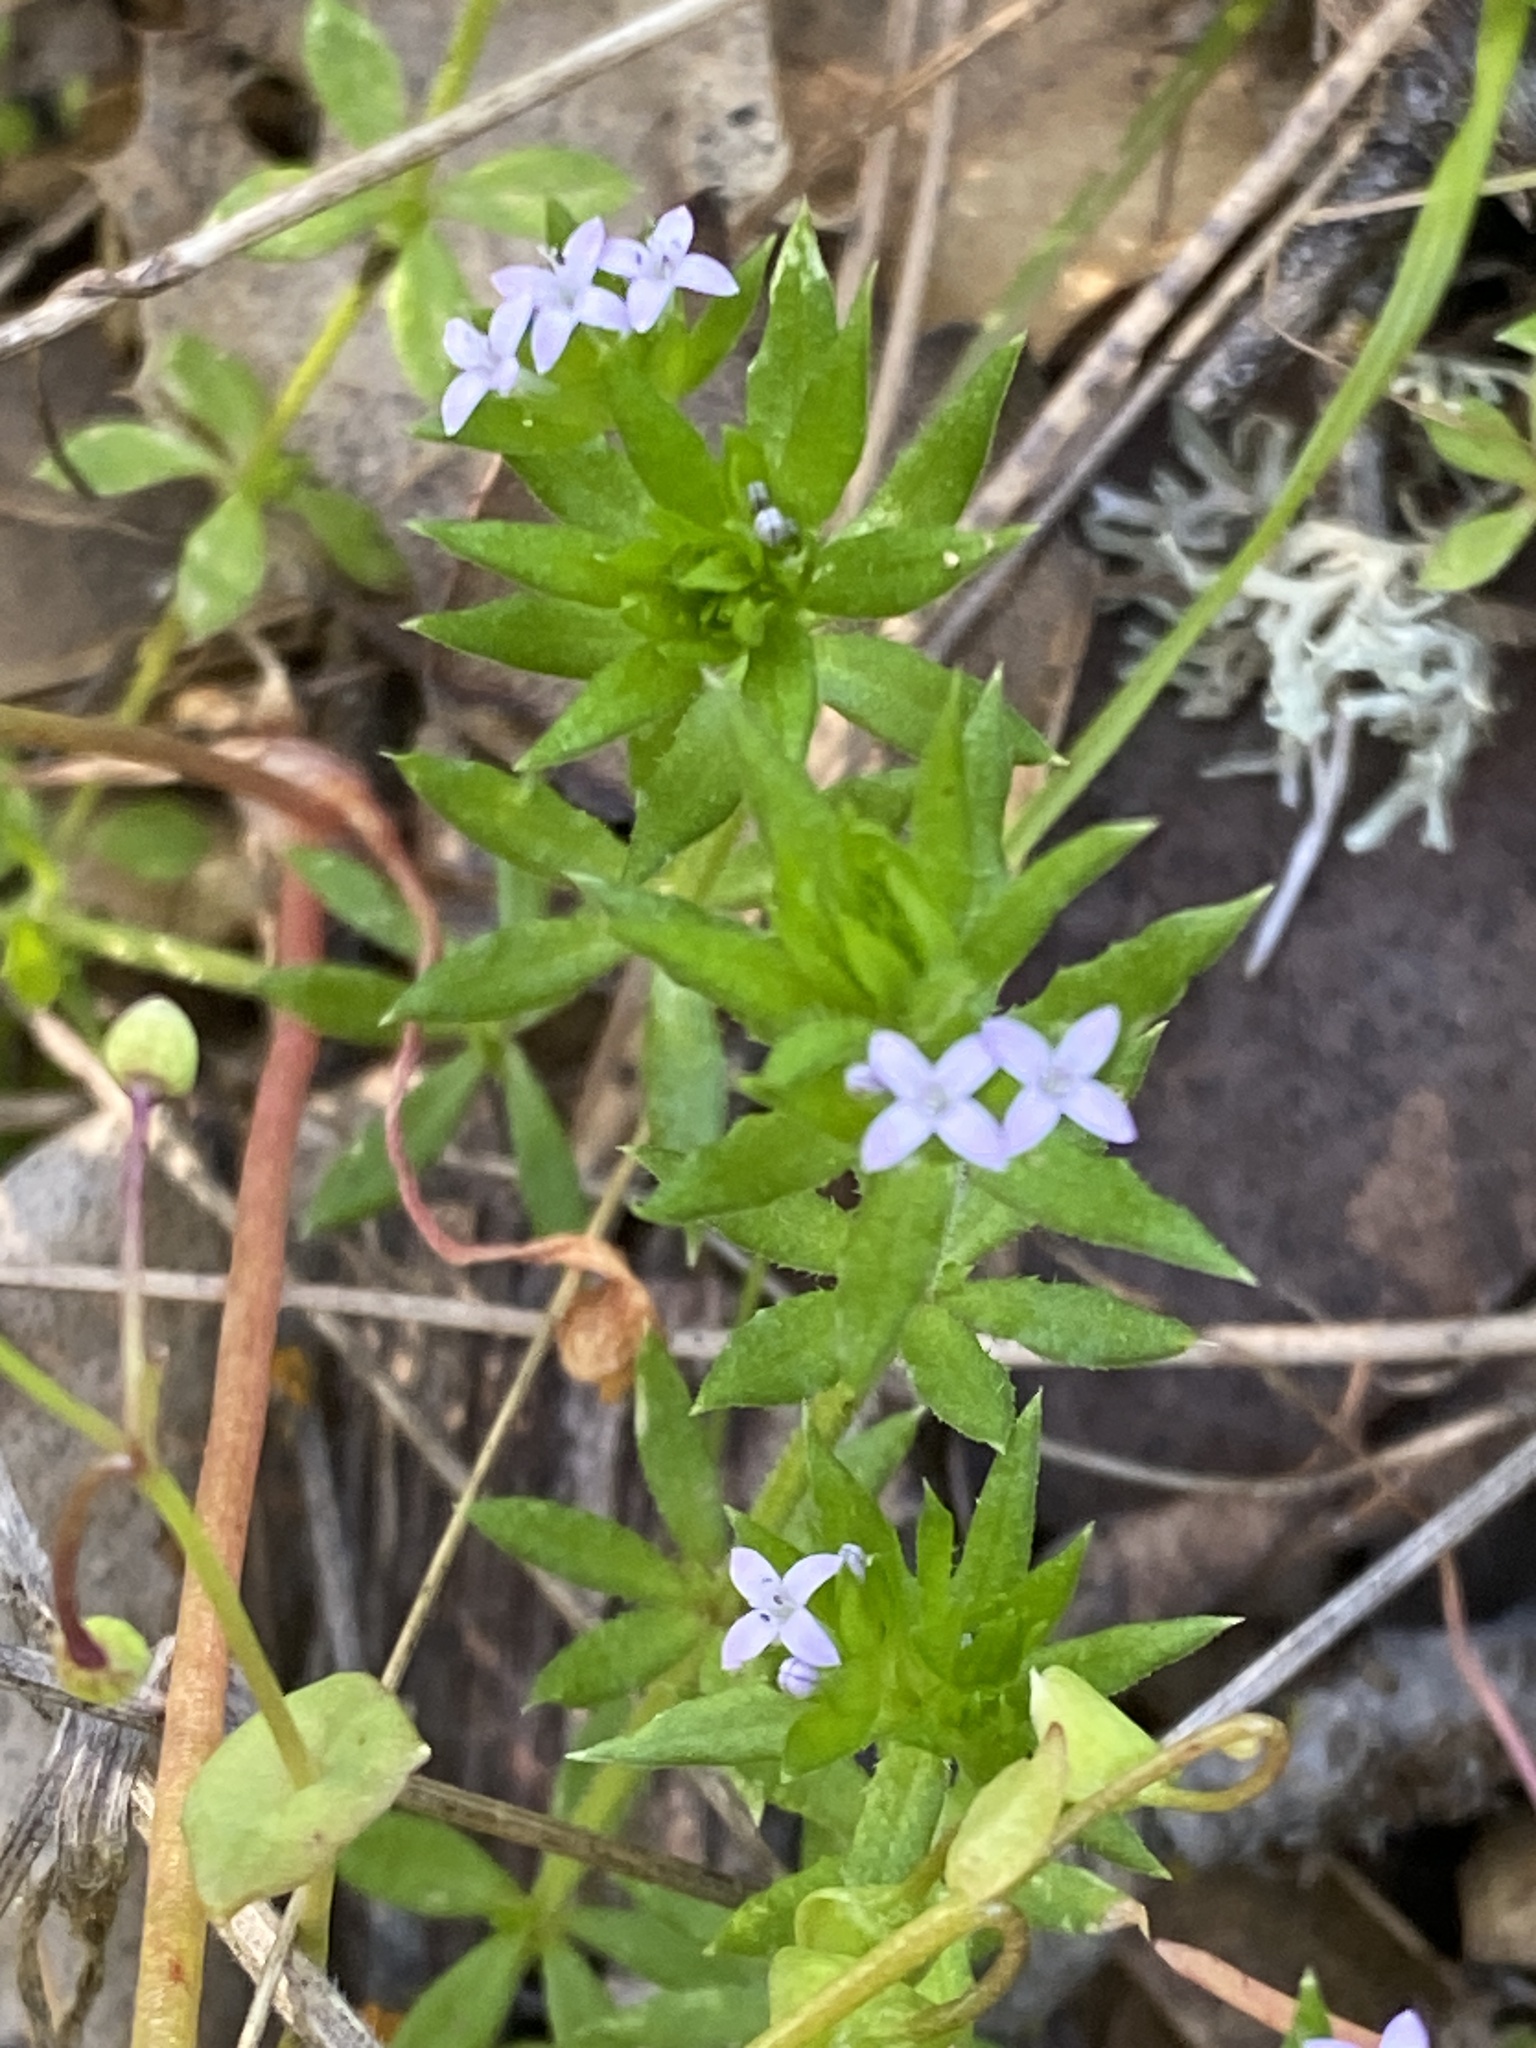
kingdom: Plantae
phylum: Tracheophyta
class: Magnoliopsida
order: Gentianales
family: Rubiaceae
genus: Sherardia
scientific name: Sherardia arvensis
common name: Field madder
